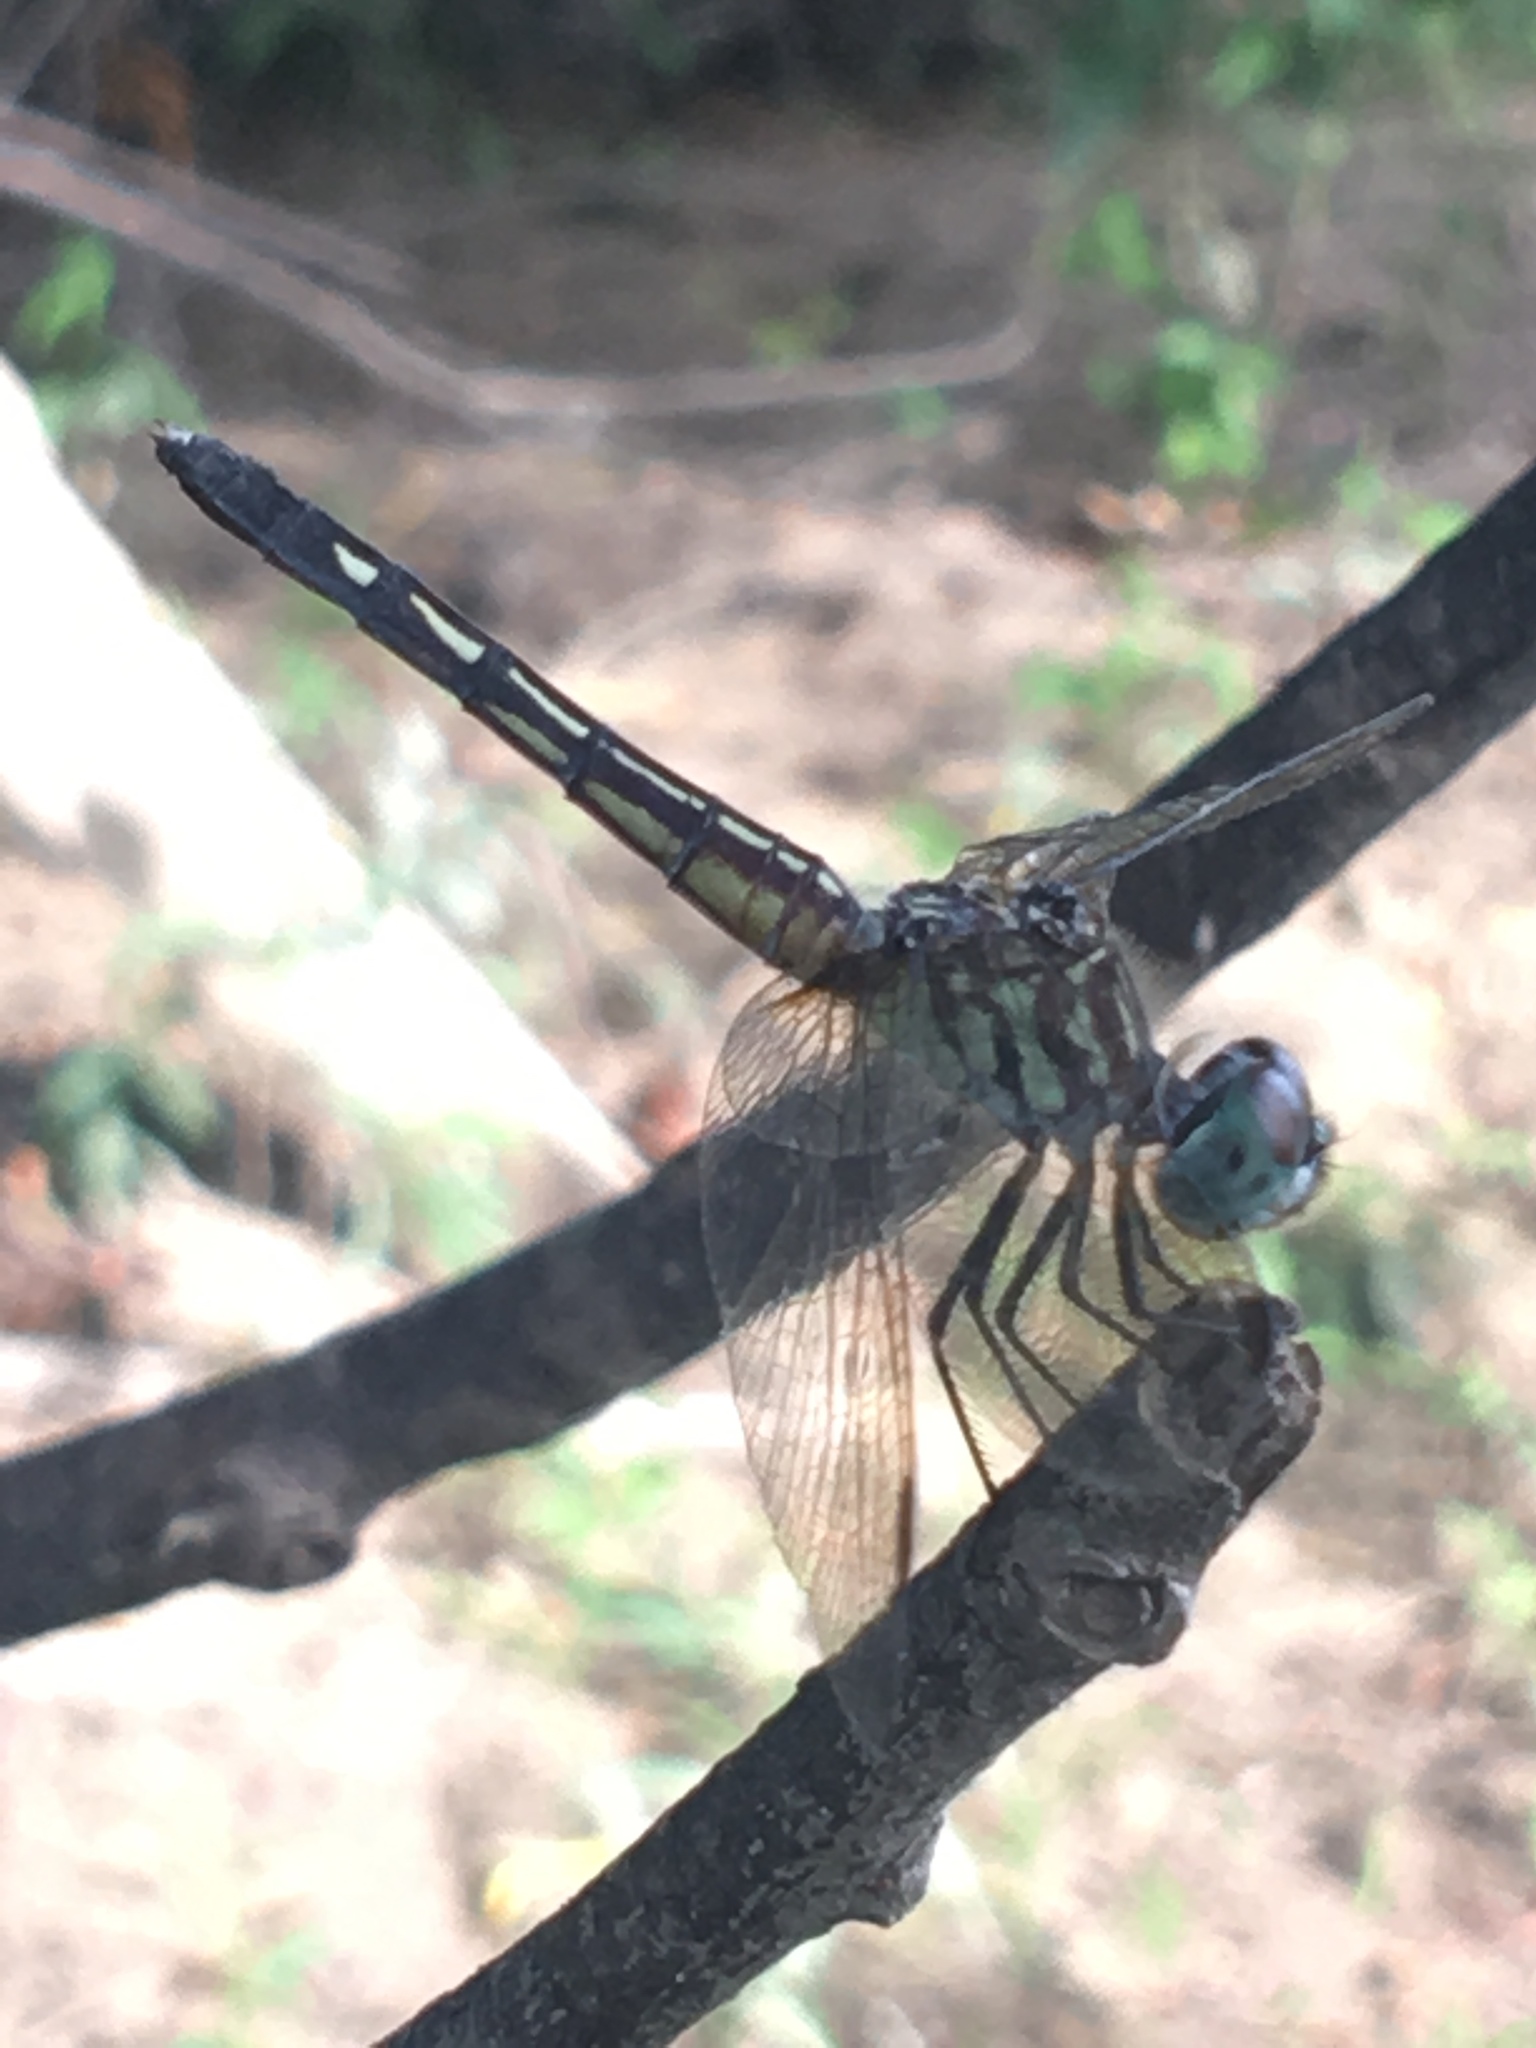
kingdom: Animalia
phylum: Arthropoda
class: Insecta
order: Odonata
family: Libellulidae
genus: Pachydiplax
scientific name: Pachydiplax longipennis
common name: Blue dasher
